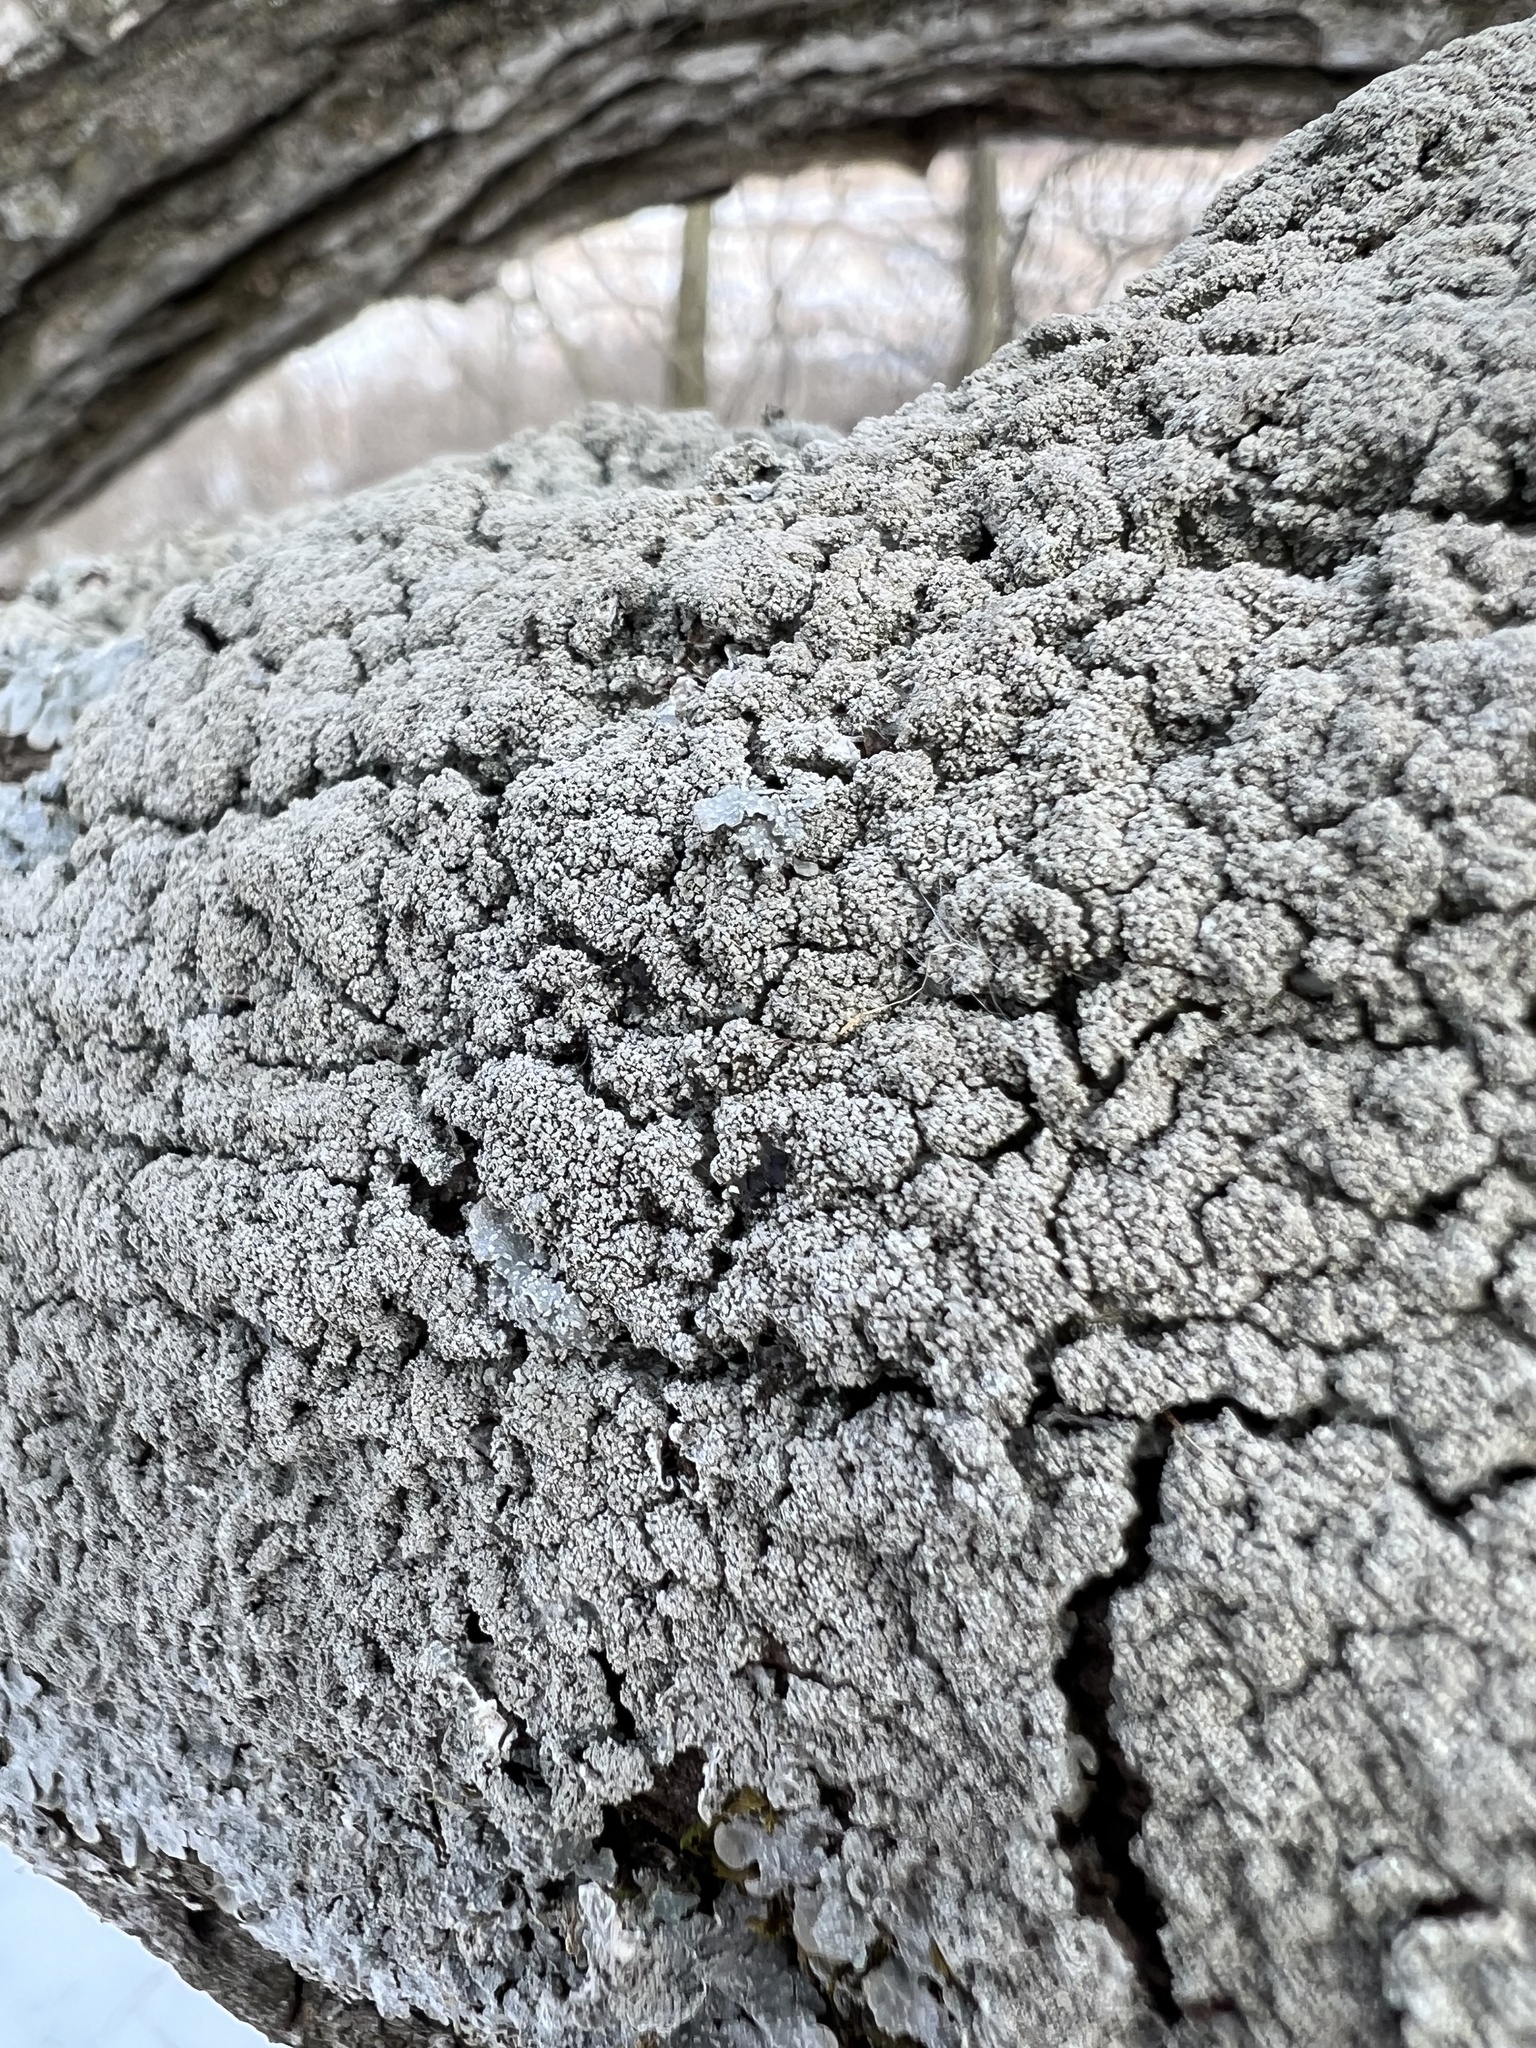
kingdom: Fungi
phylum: Ascomycota
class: Lecanoromycetes
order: Lecanorales
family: Parmeliaceae
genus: Punctelia
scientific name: Punctelia missouriensis
